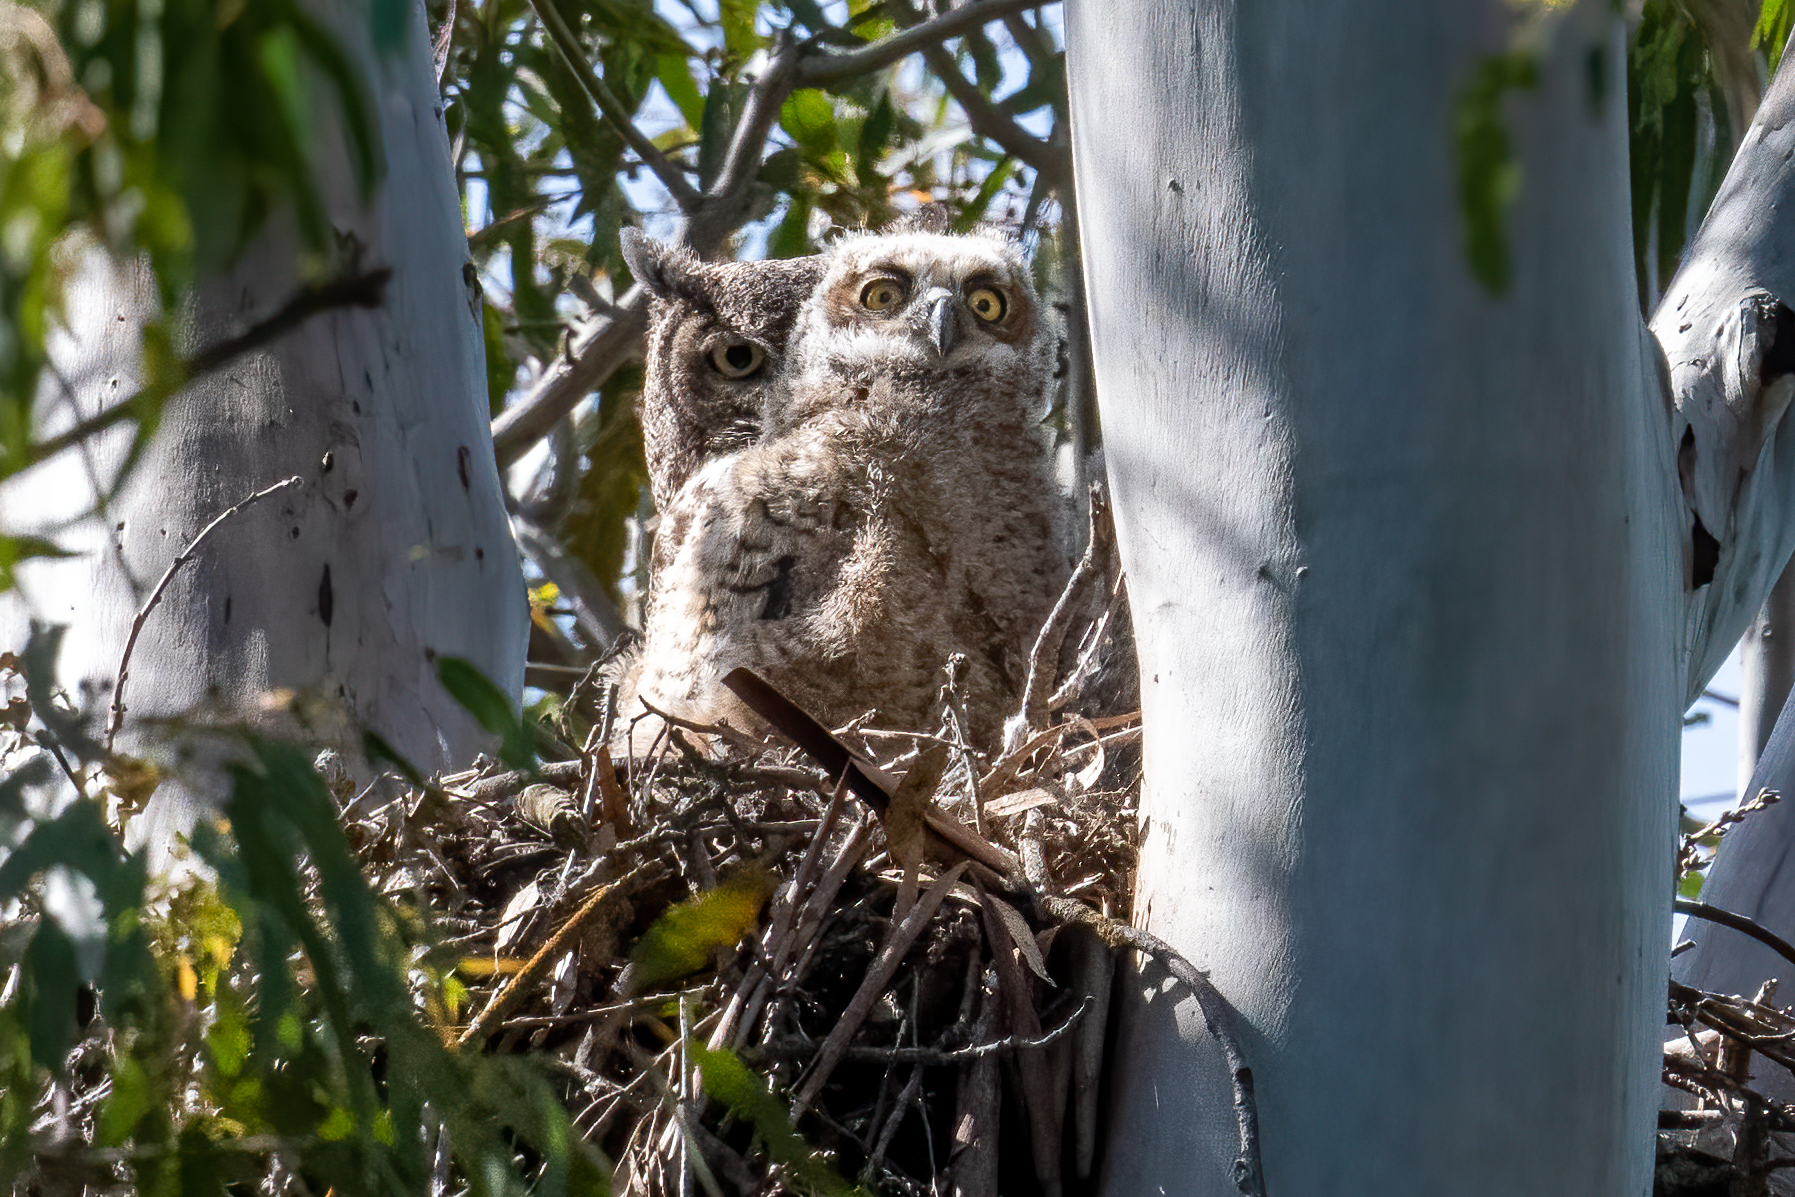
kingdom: Animalia
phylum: Chordata
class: Aves
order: Strigiformes
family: Strigidae
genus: Bubo
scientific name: Bubo virginianus
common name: Great horned owl
